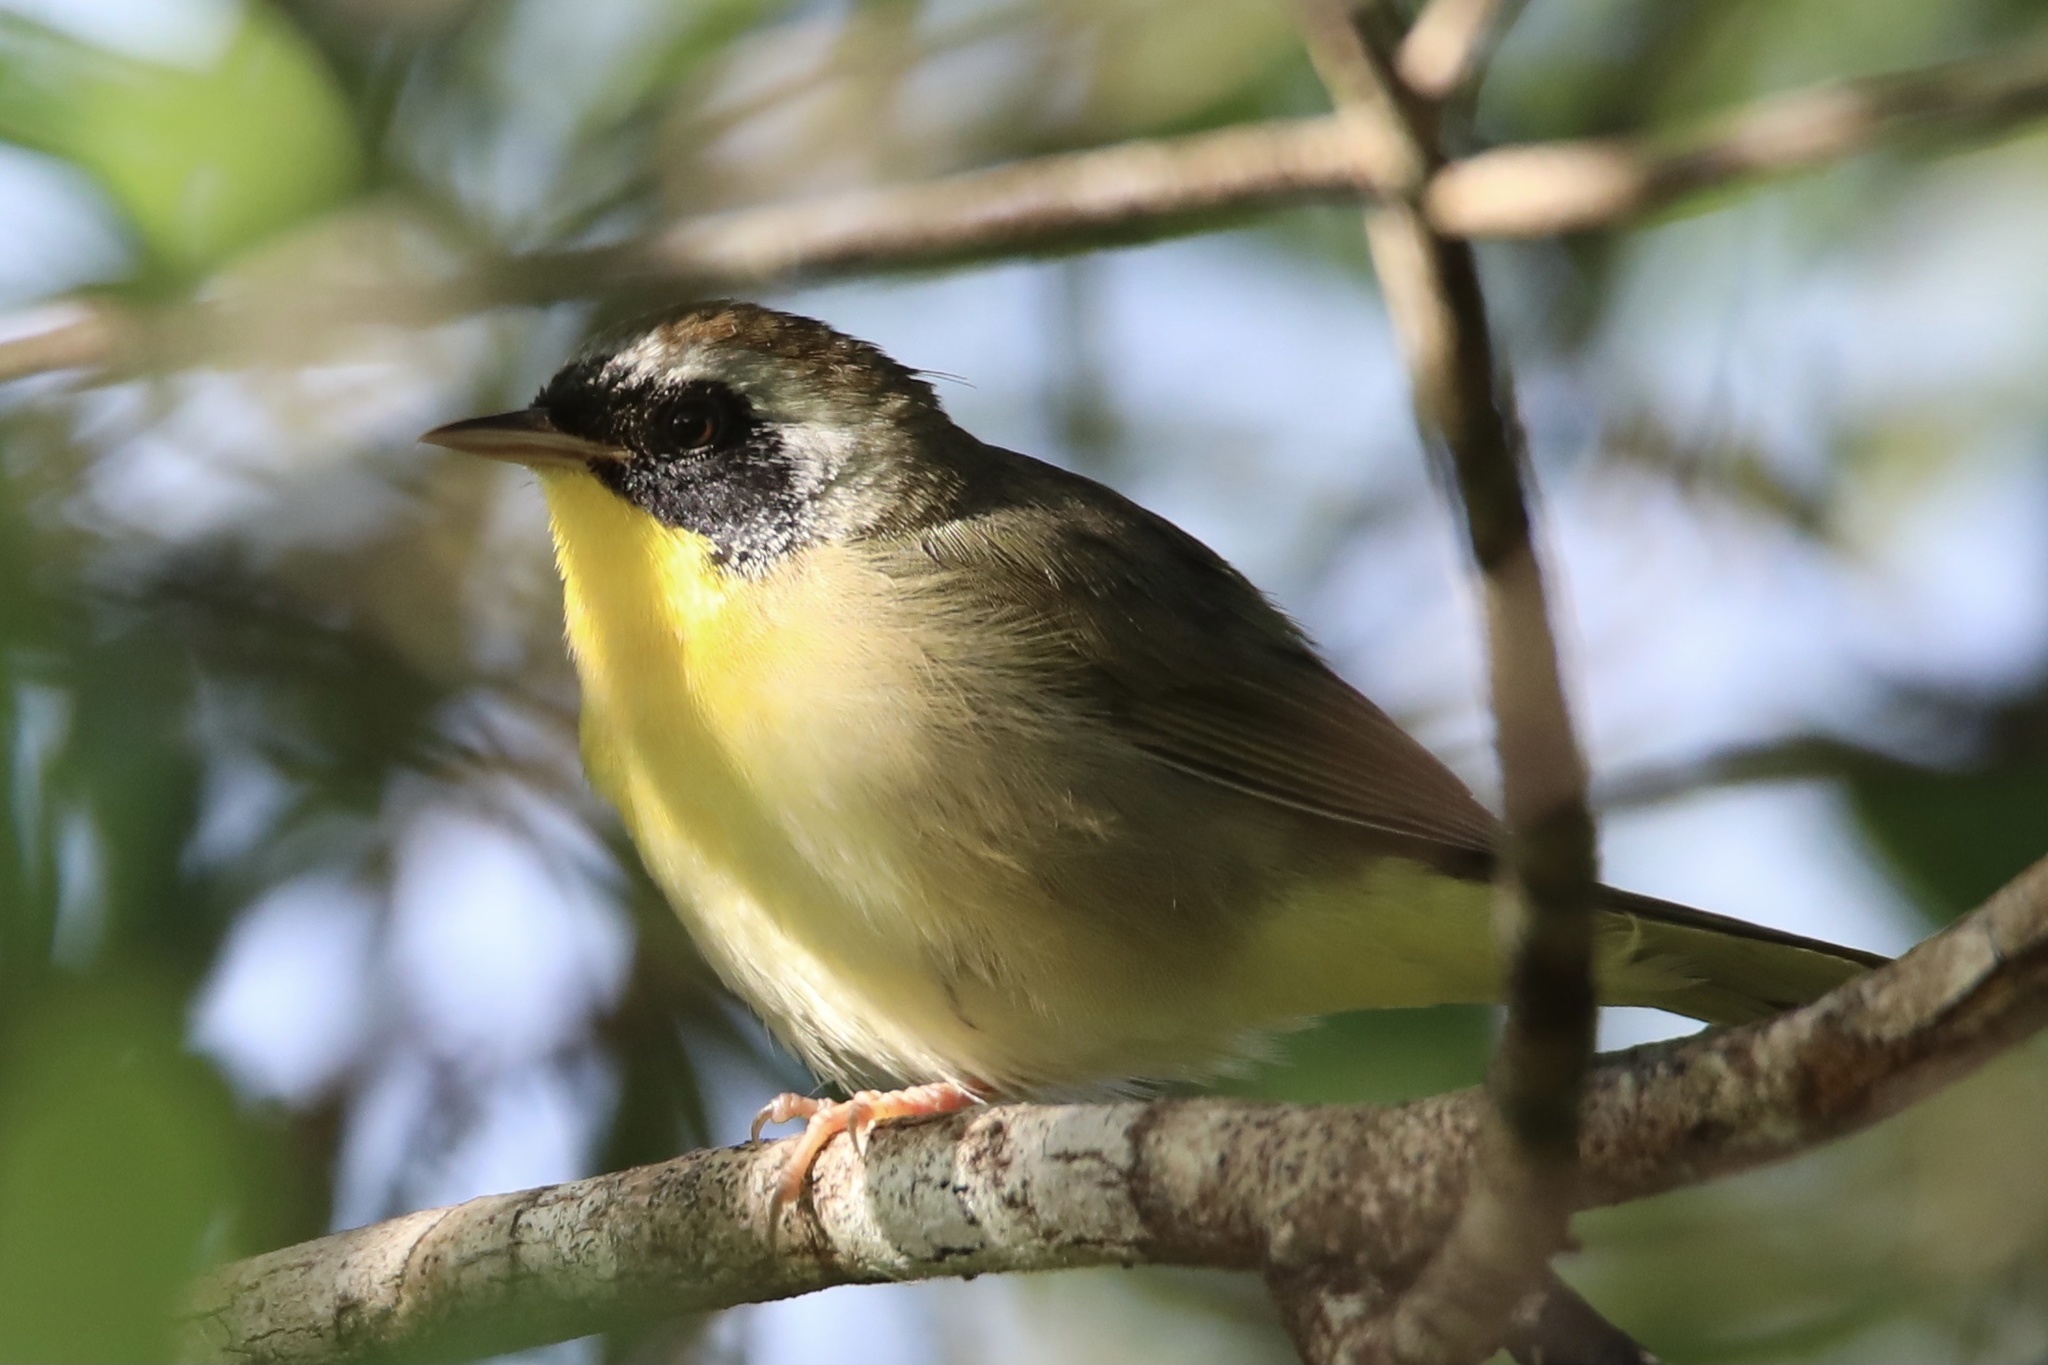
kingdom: Animalia
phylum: Chordata
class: Aves
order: Passeriformes
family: Parulidae
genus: Geothlypis
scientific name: Geothlypis trichas
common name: Common yellowthroat
